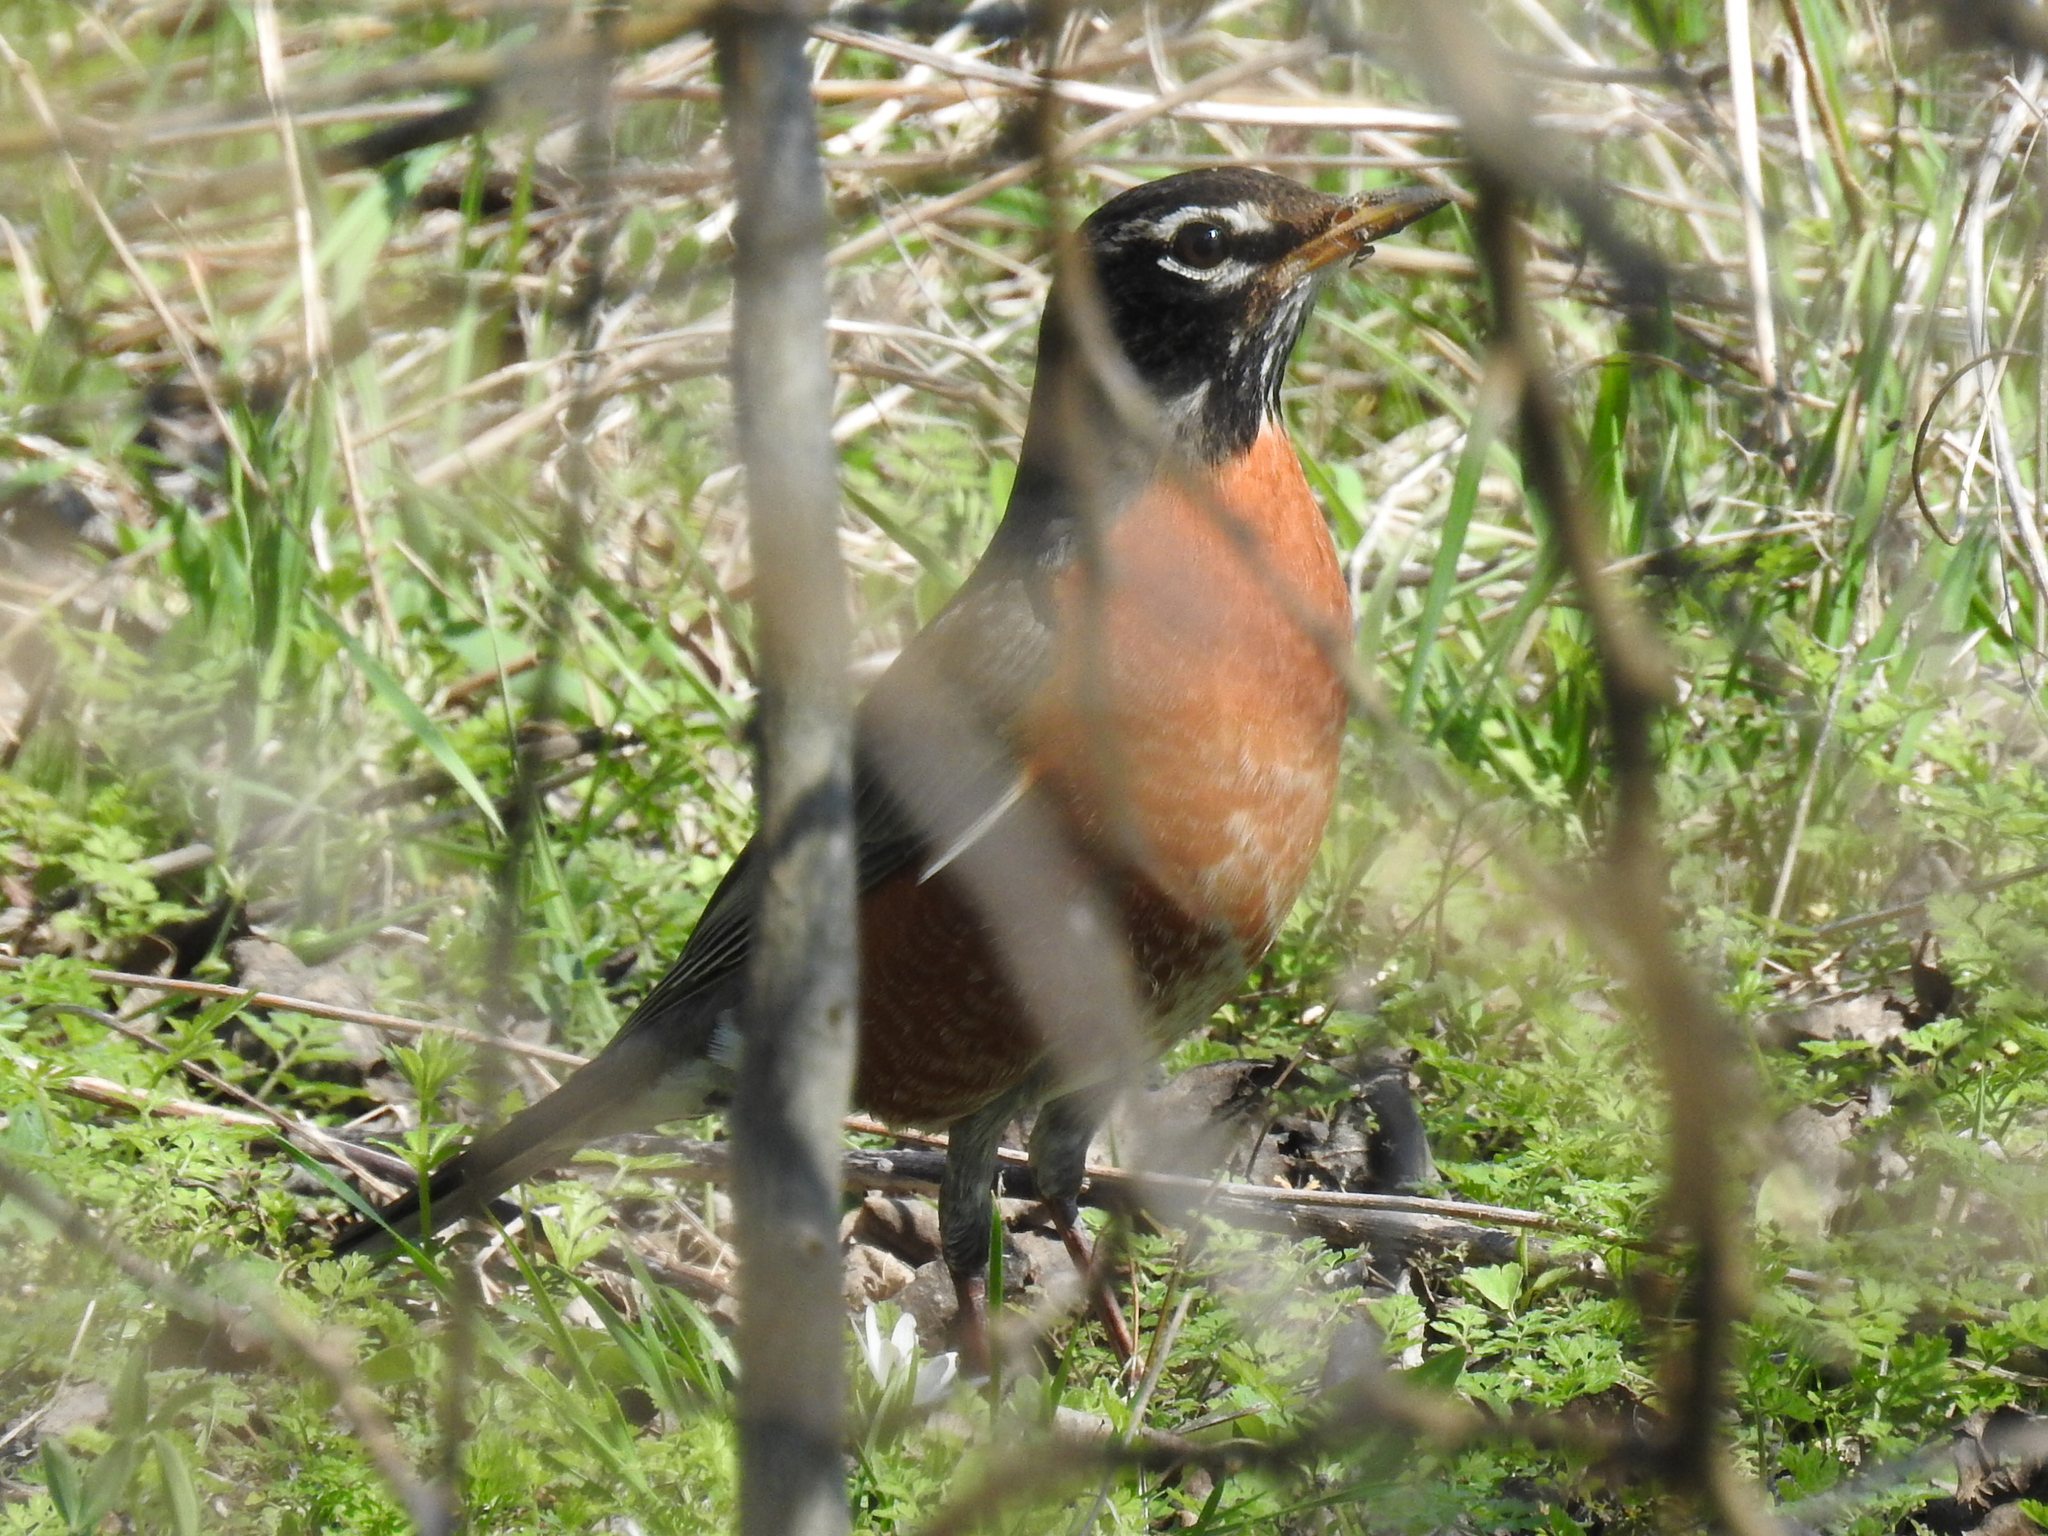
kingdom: Animalia
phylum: Chordata
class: Aves
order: Passeriformes
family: Turdidae
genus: Turdus
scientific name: Turdus migratorius
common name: American robin
